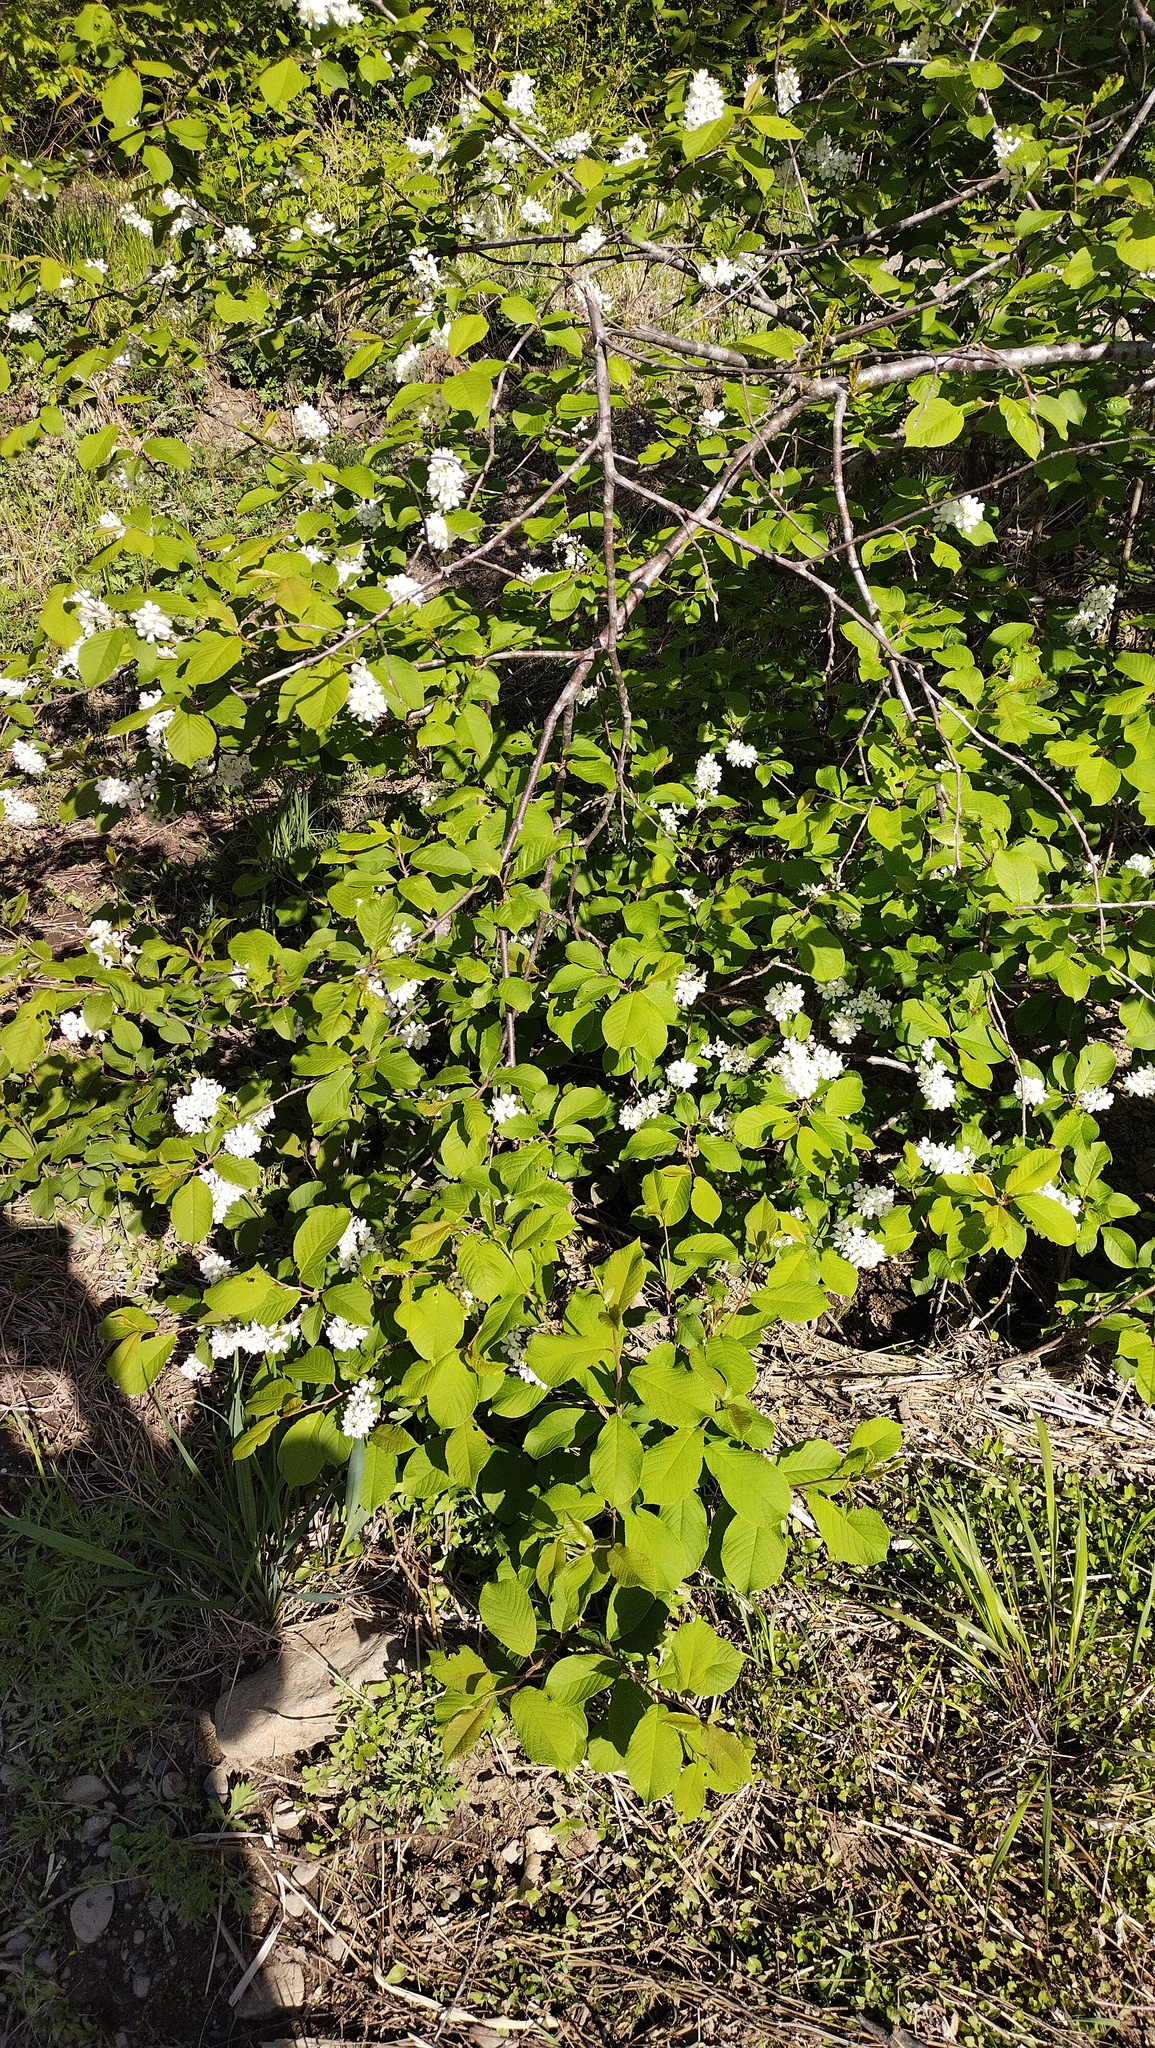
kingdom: Plantae
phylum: Tracheophyta
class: Magnoliopsida
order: Rosales
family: Rosaceae
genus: Prunus
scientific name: Prunus padus
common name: Bird cherry
